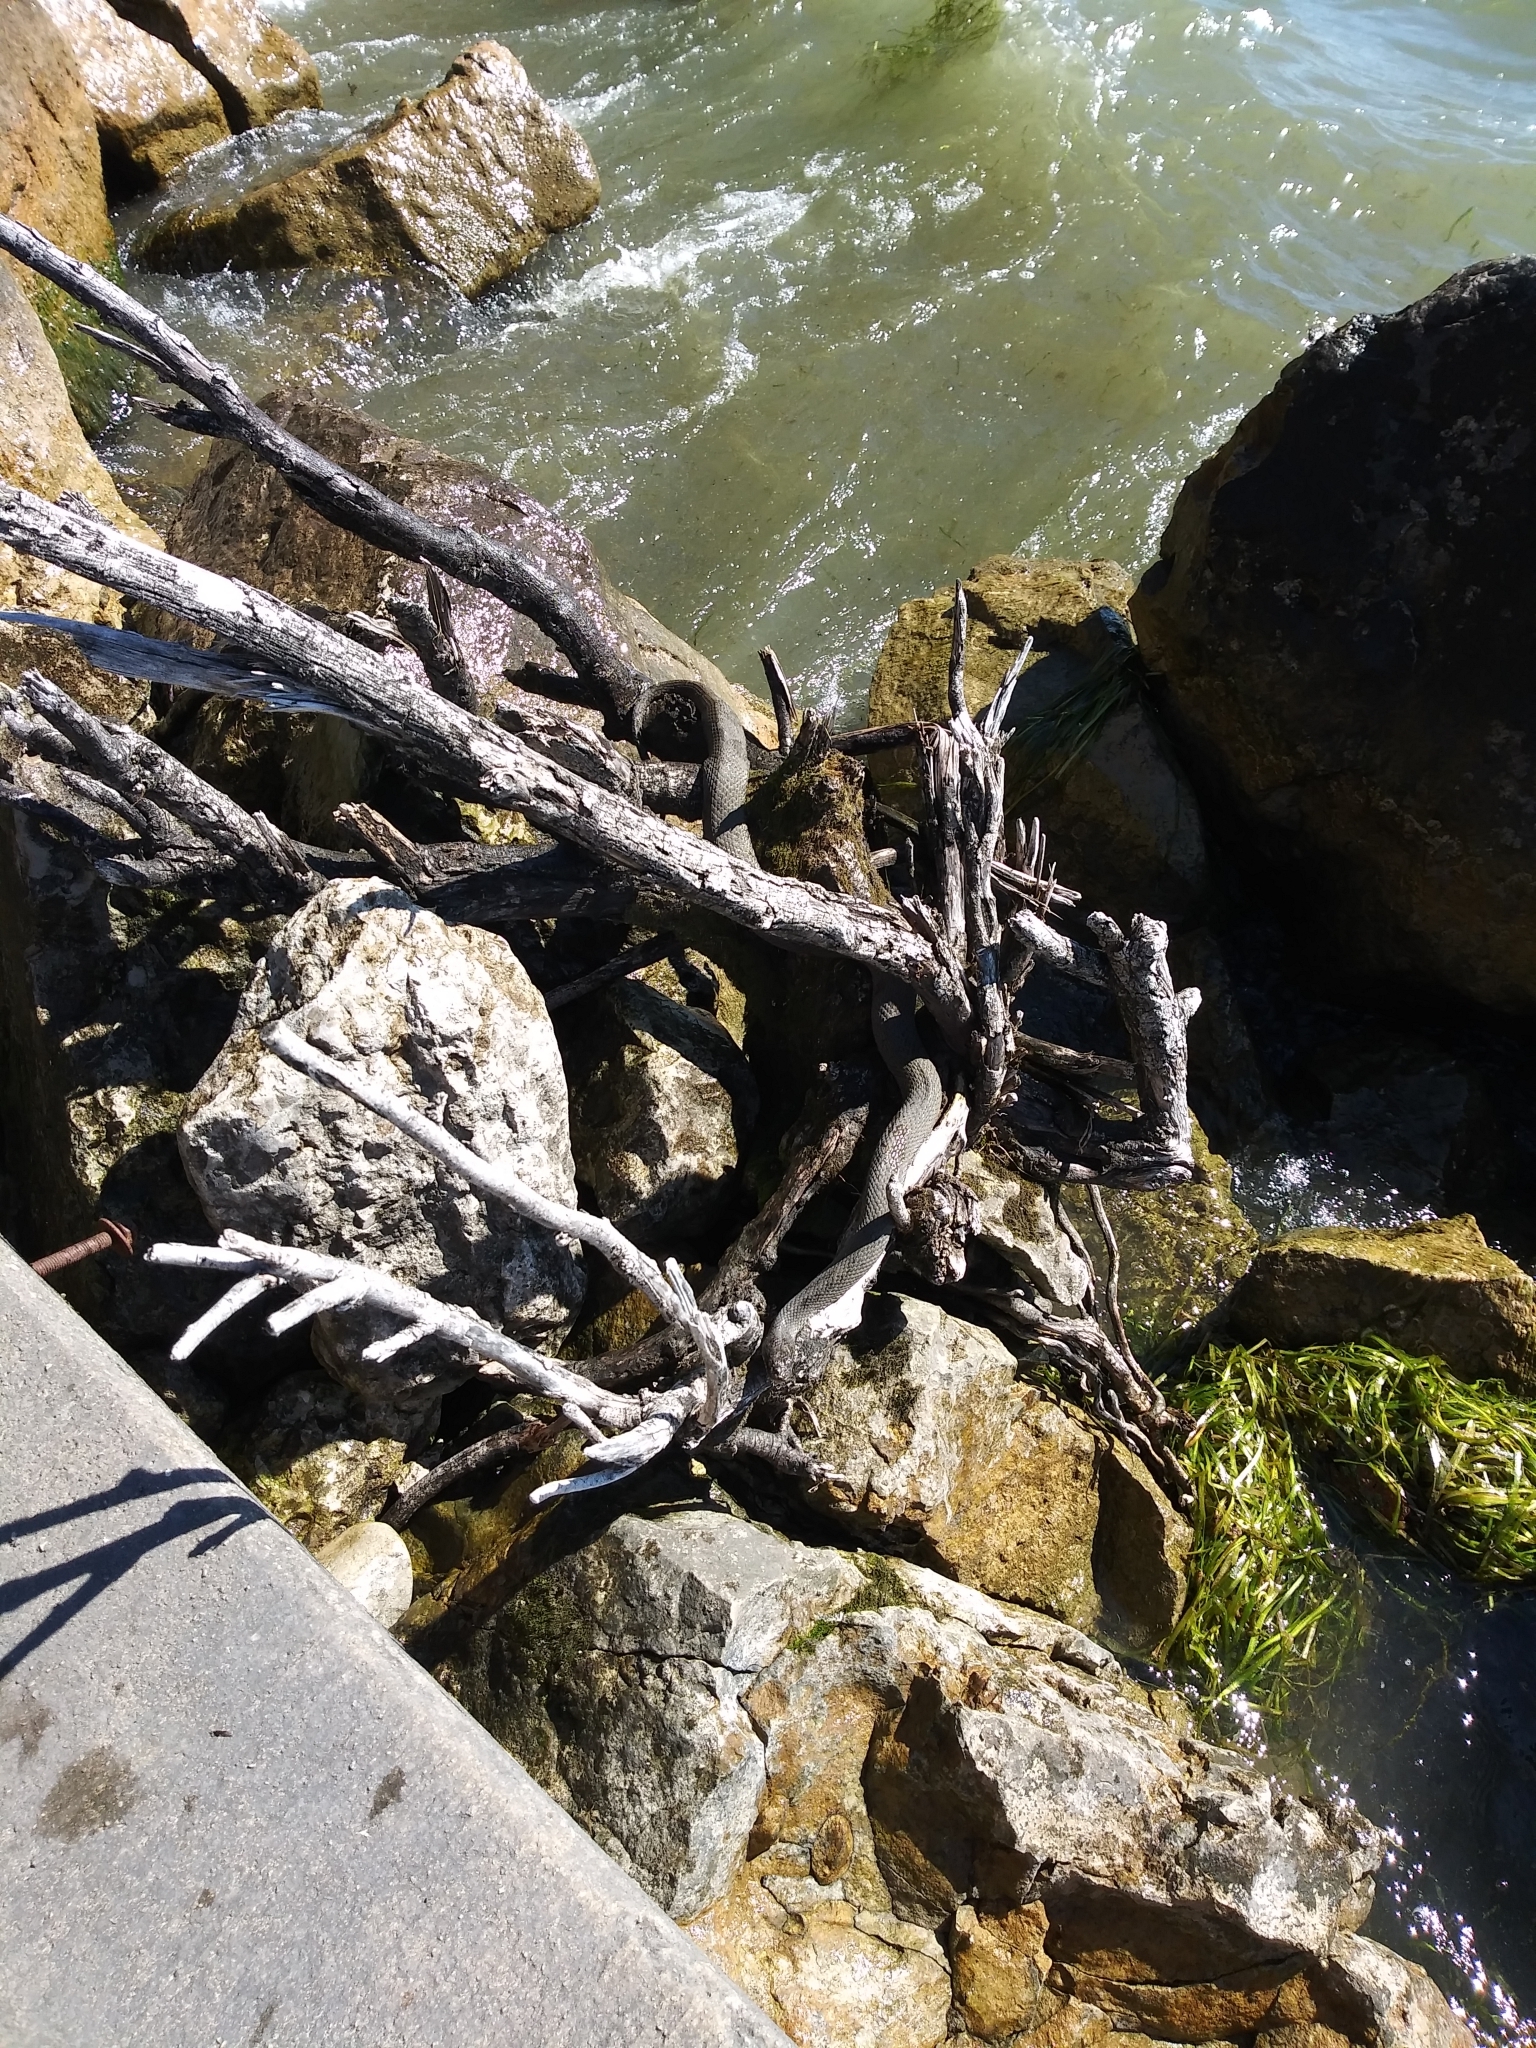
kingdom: Animalia
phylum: Chordata
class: Squamata
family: Colubridae
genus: Nerodia
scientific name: Nerodia sipedon
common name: Northern water snake
